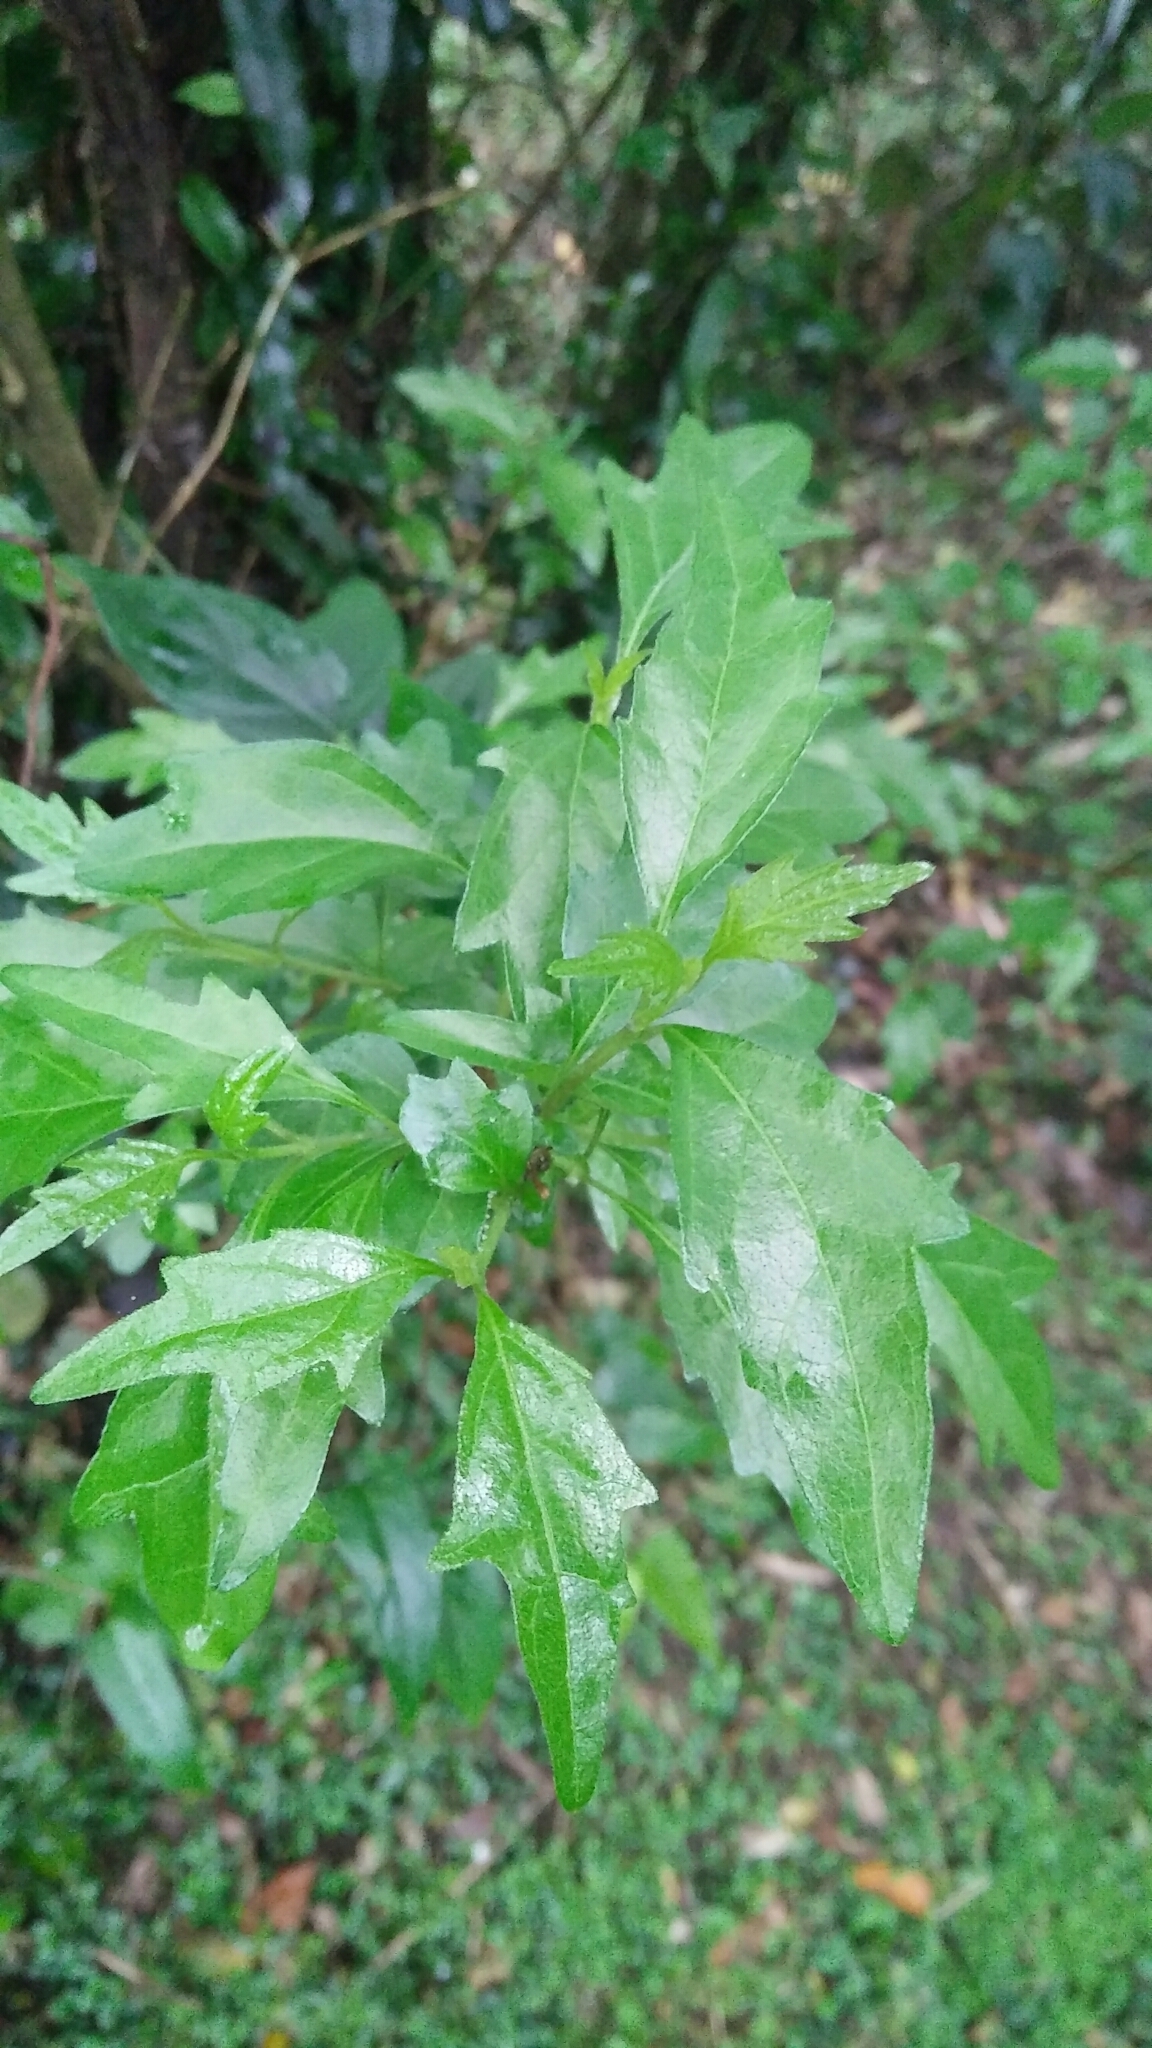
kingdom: Plantae
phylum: Tracheophyta
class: Magnoliopsida
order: Lamiales
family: Lamiaceae
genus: Premna
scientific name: Premna microphylla
